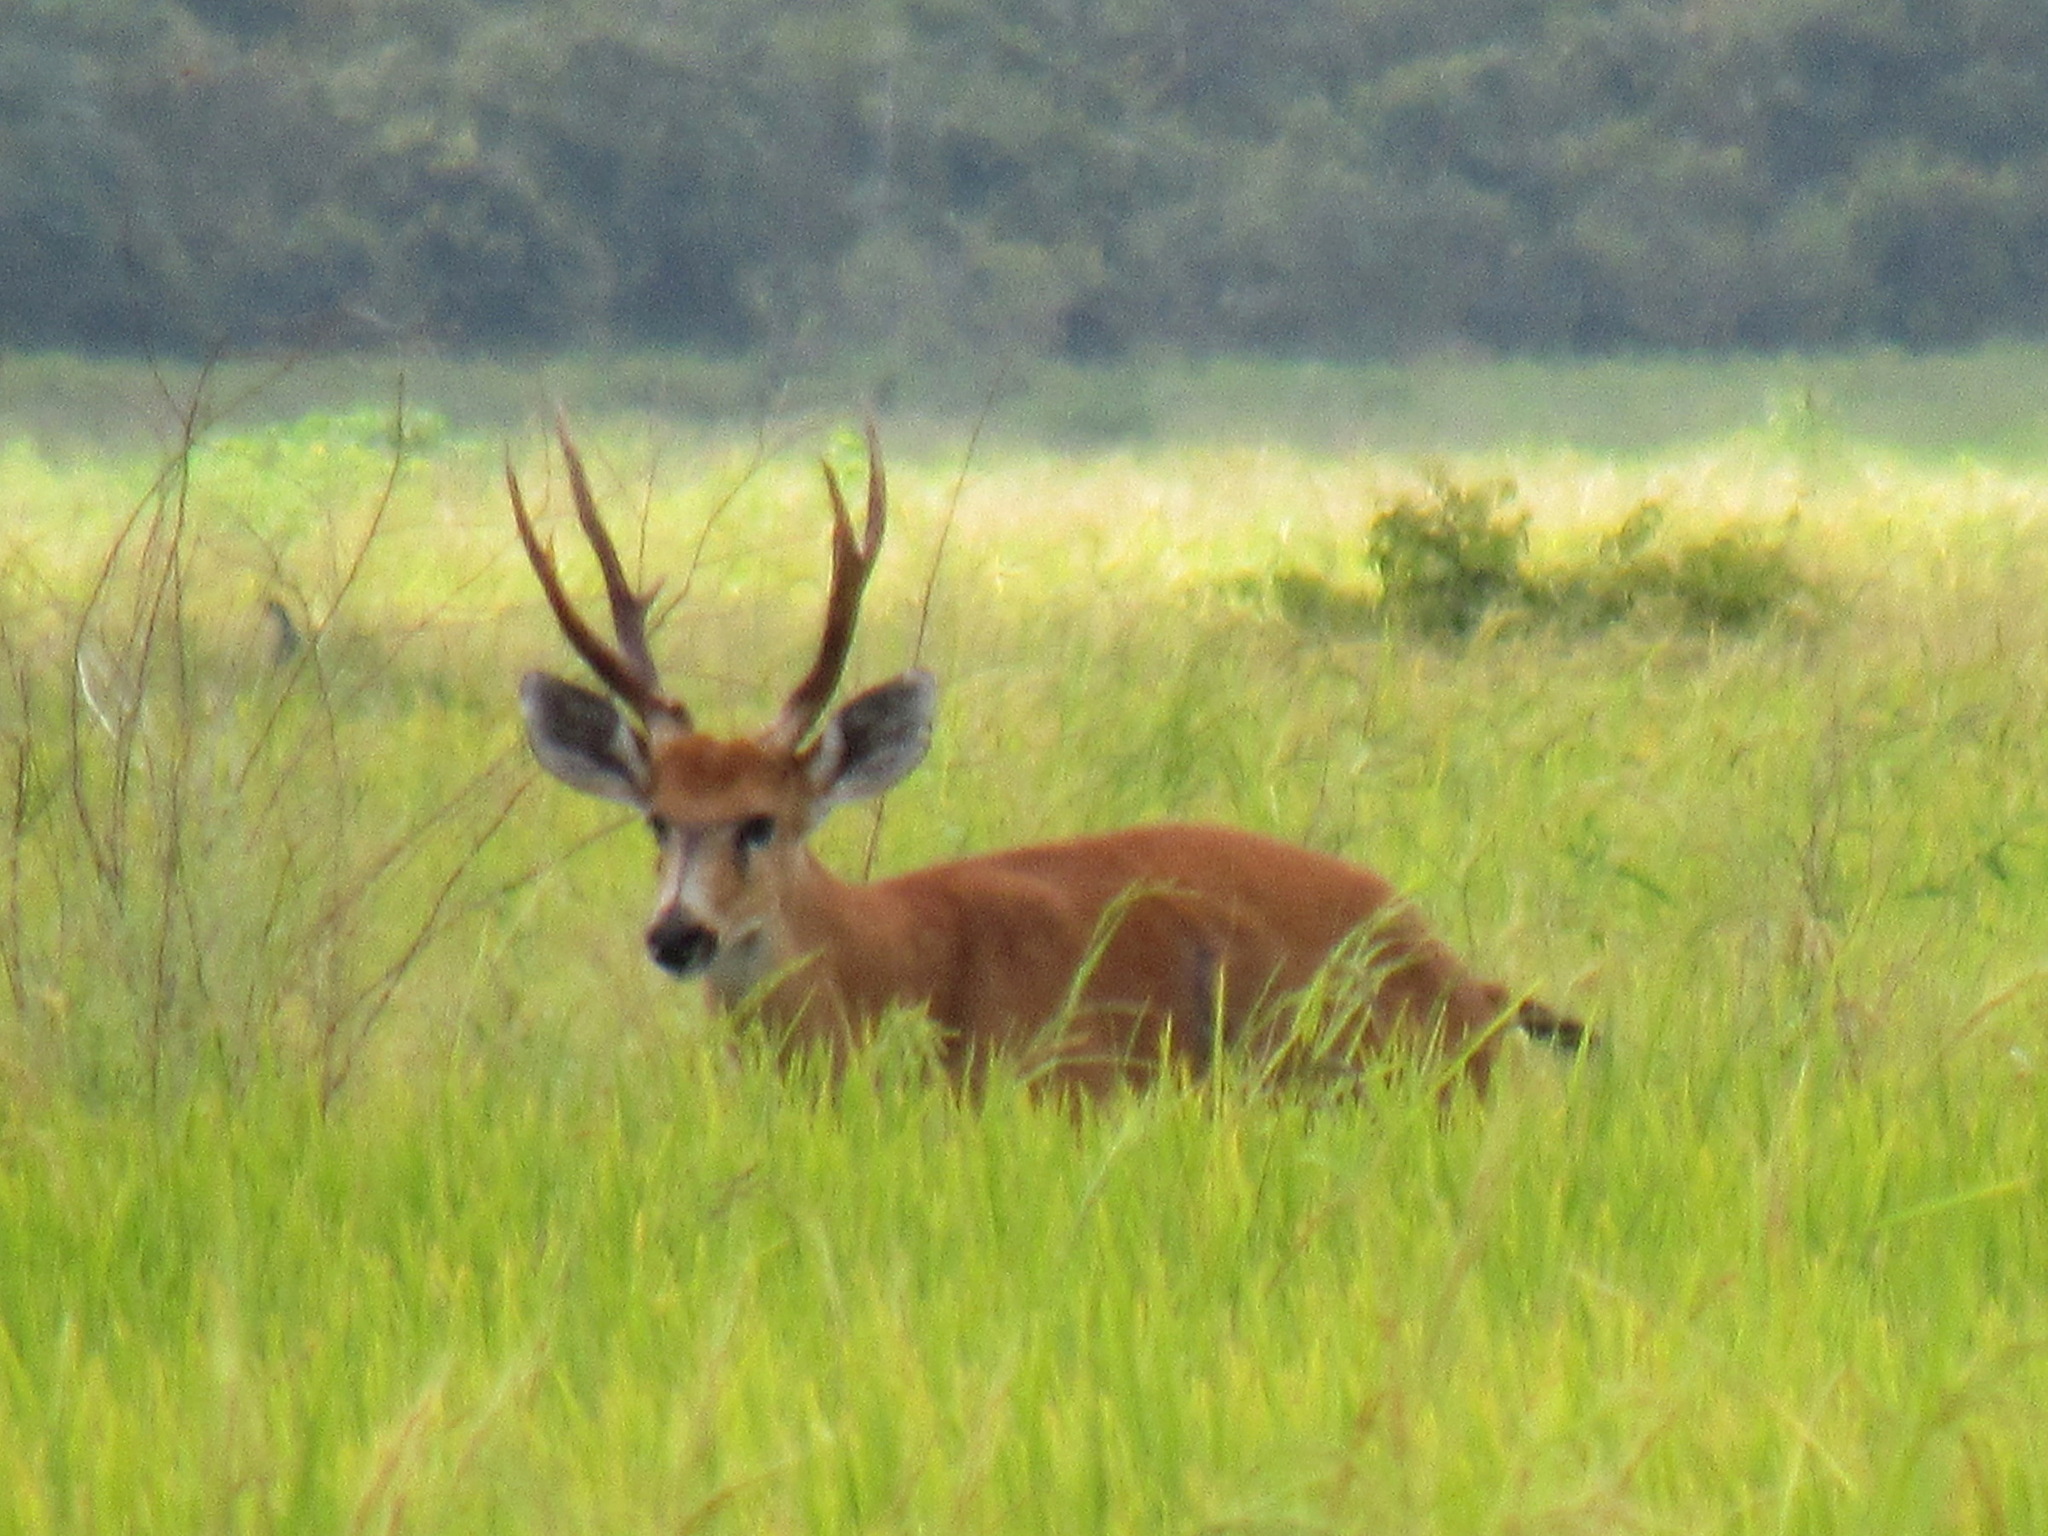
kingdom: Animalia
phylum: Chordata
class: Mammalia
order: Artiodactyla
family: Cervidae
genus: Blastocerus
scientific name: Blastocerus dichotomus
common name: Marsh deer
